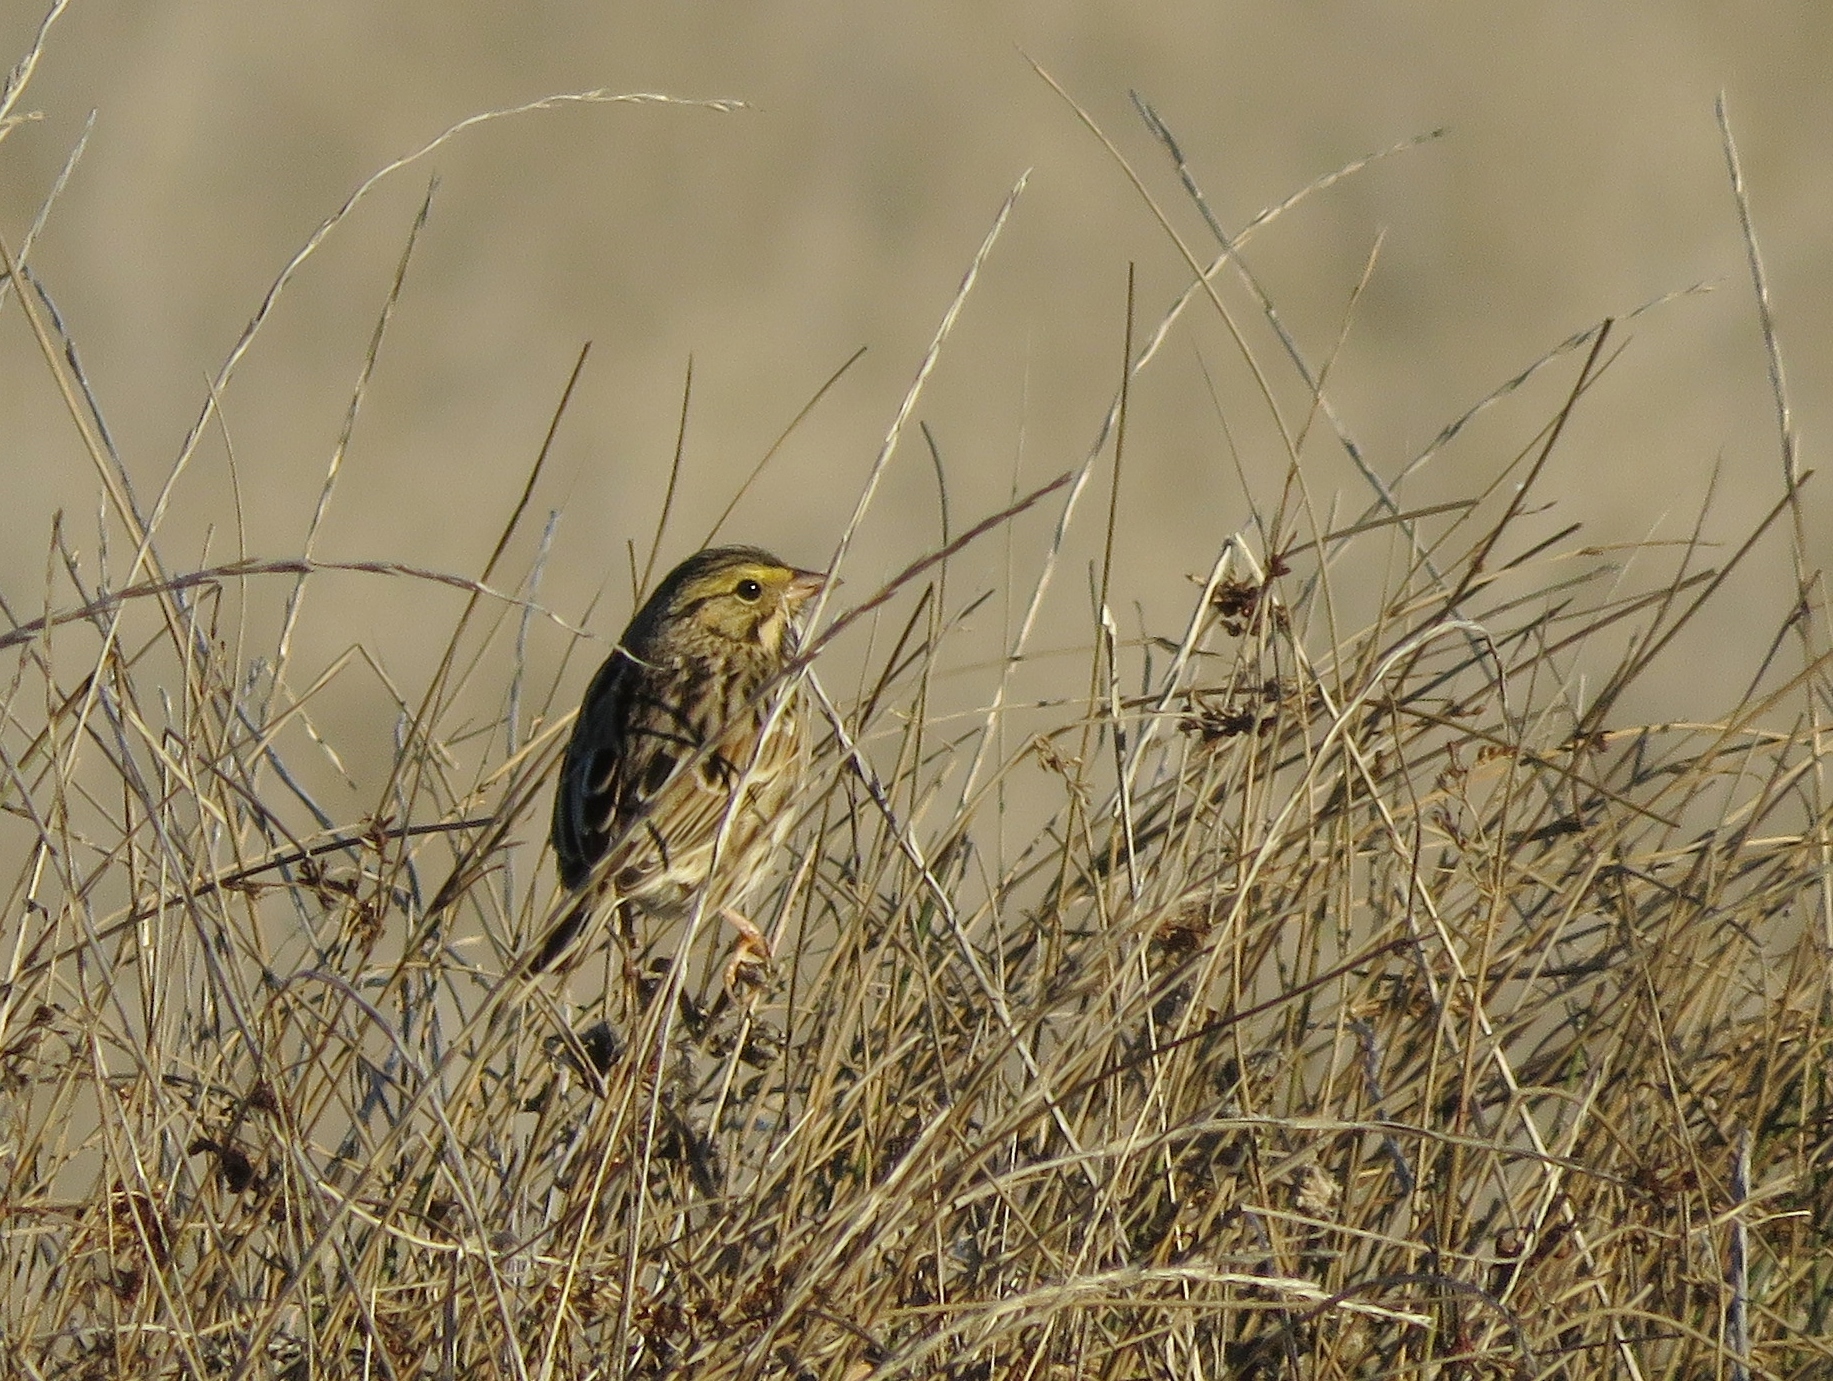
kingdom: Animalia
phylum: Chordata
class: Aves
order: Passeriformes
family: Passerellidae
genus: Passerculus
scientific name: Passerculus sandwichensis
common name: Savannah sparrow
